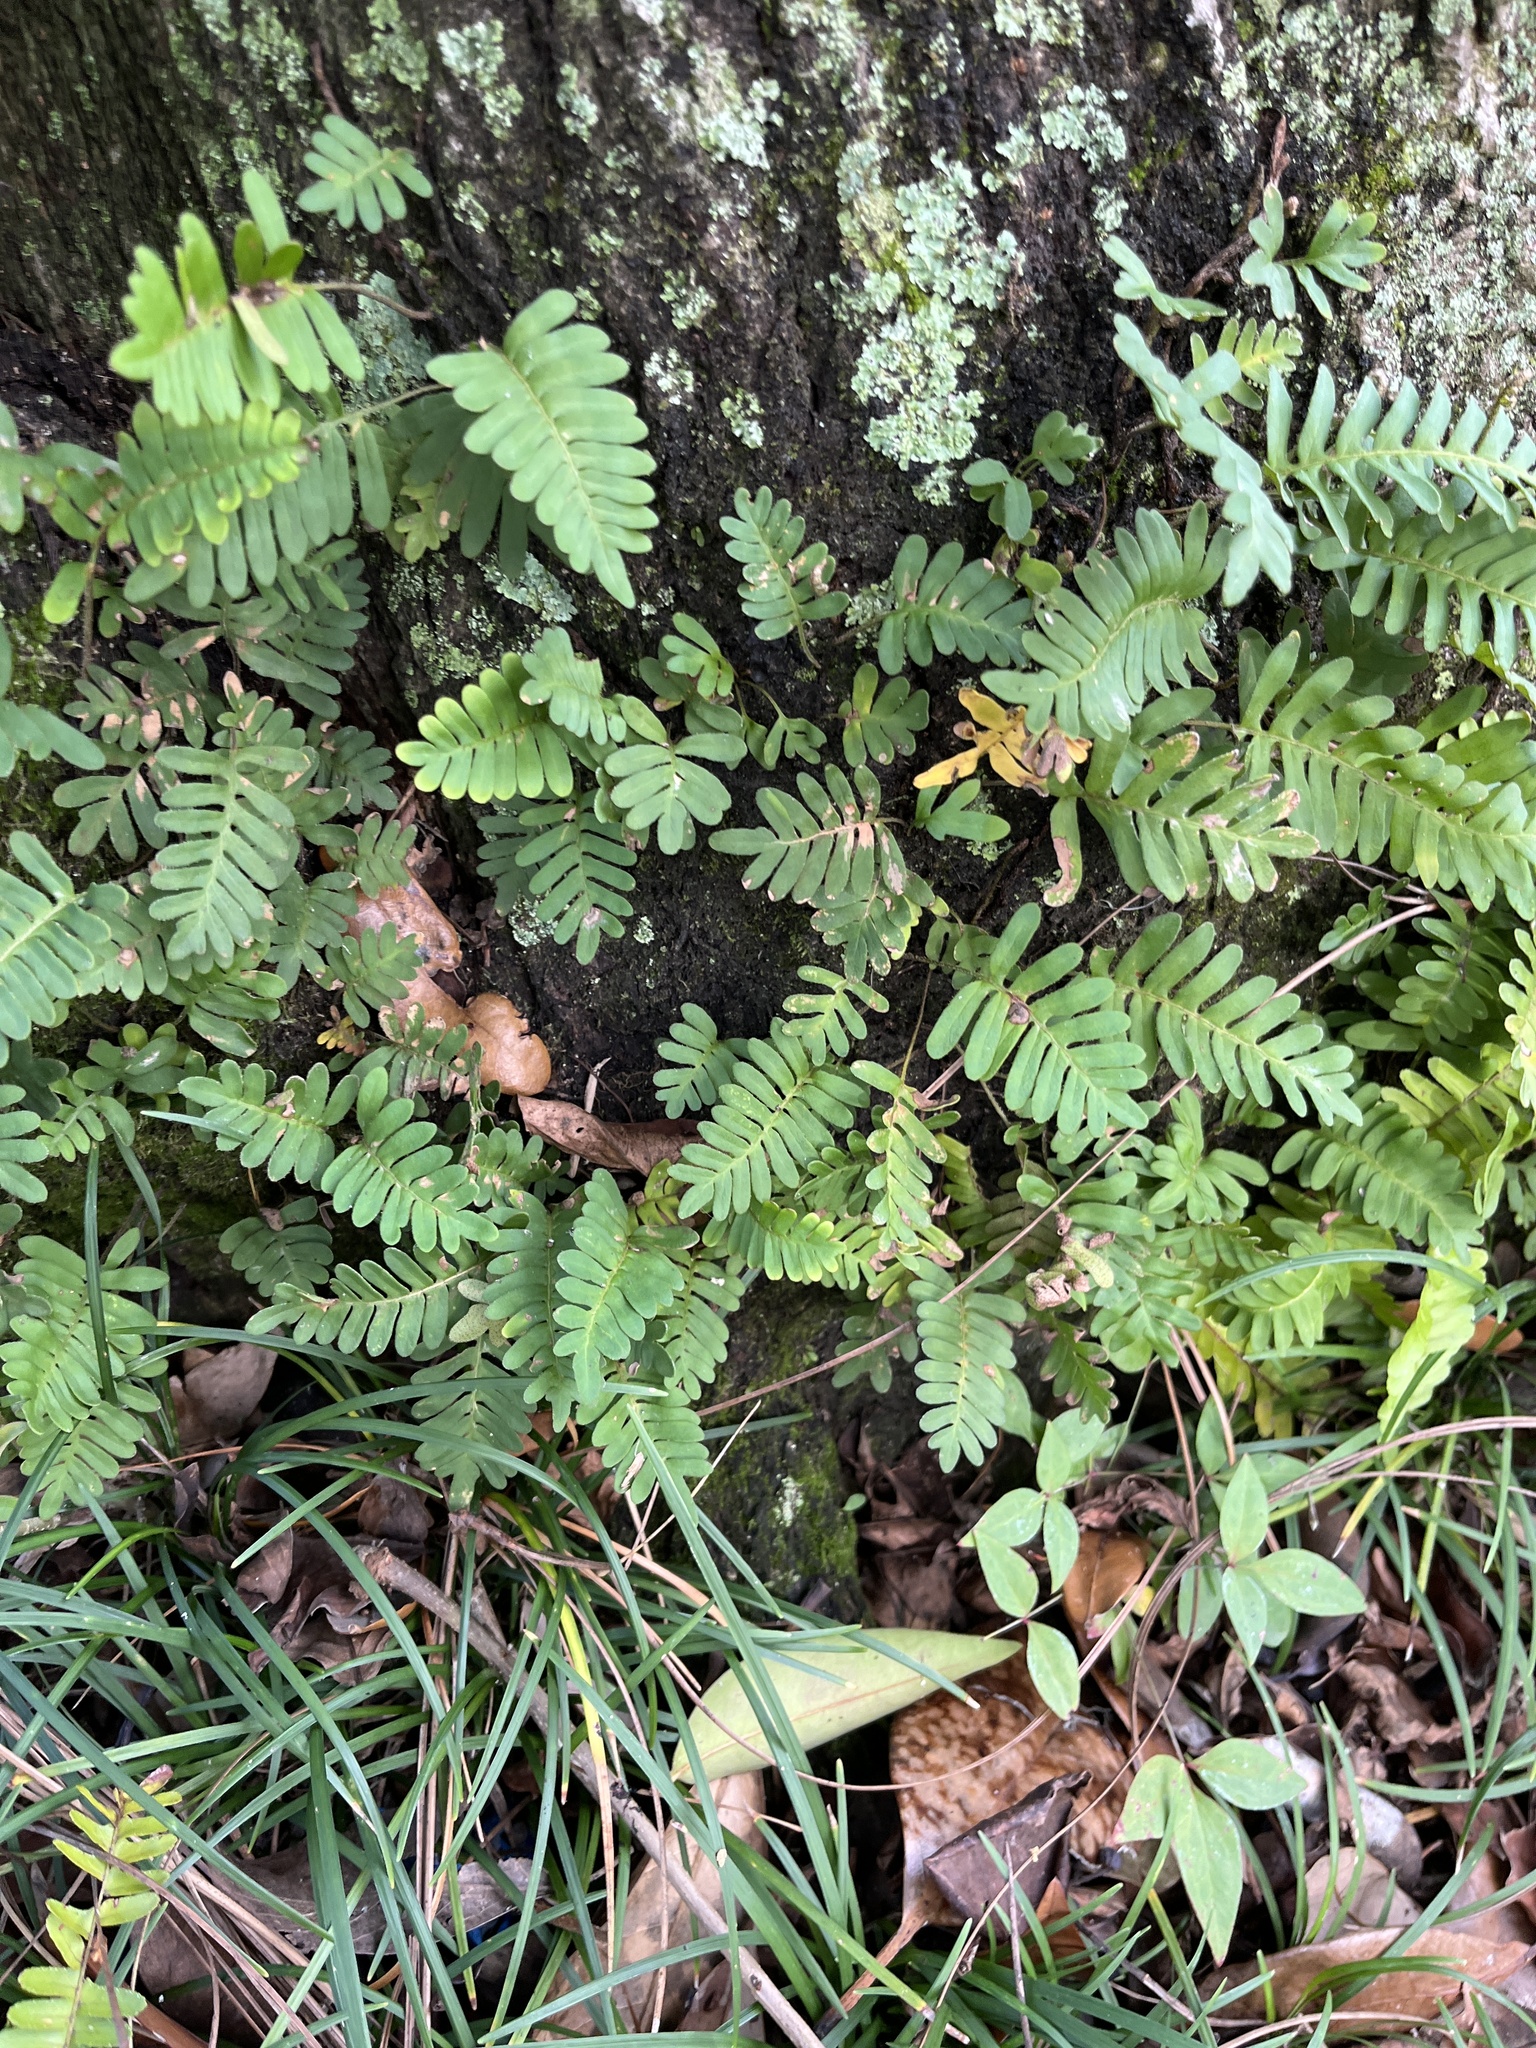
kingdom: Plantae
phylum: Tracheophyta
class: Polypodiopsida
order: Polypodiales
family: Polypodiaceae
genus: Pleopeltis
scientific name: Pleopeltis michauxiana
